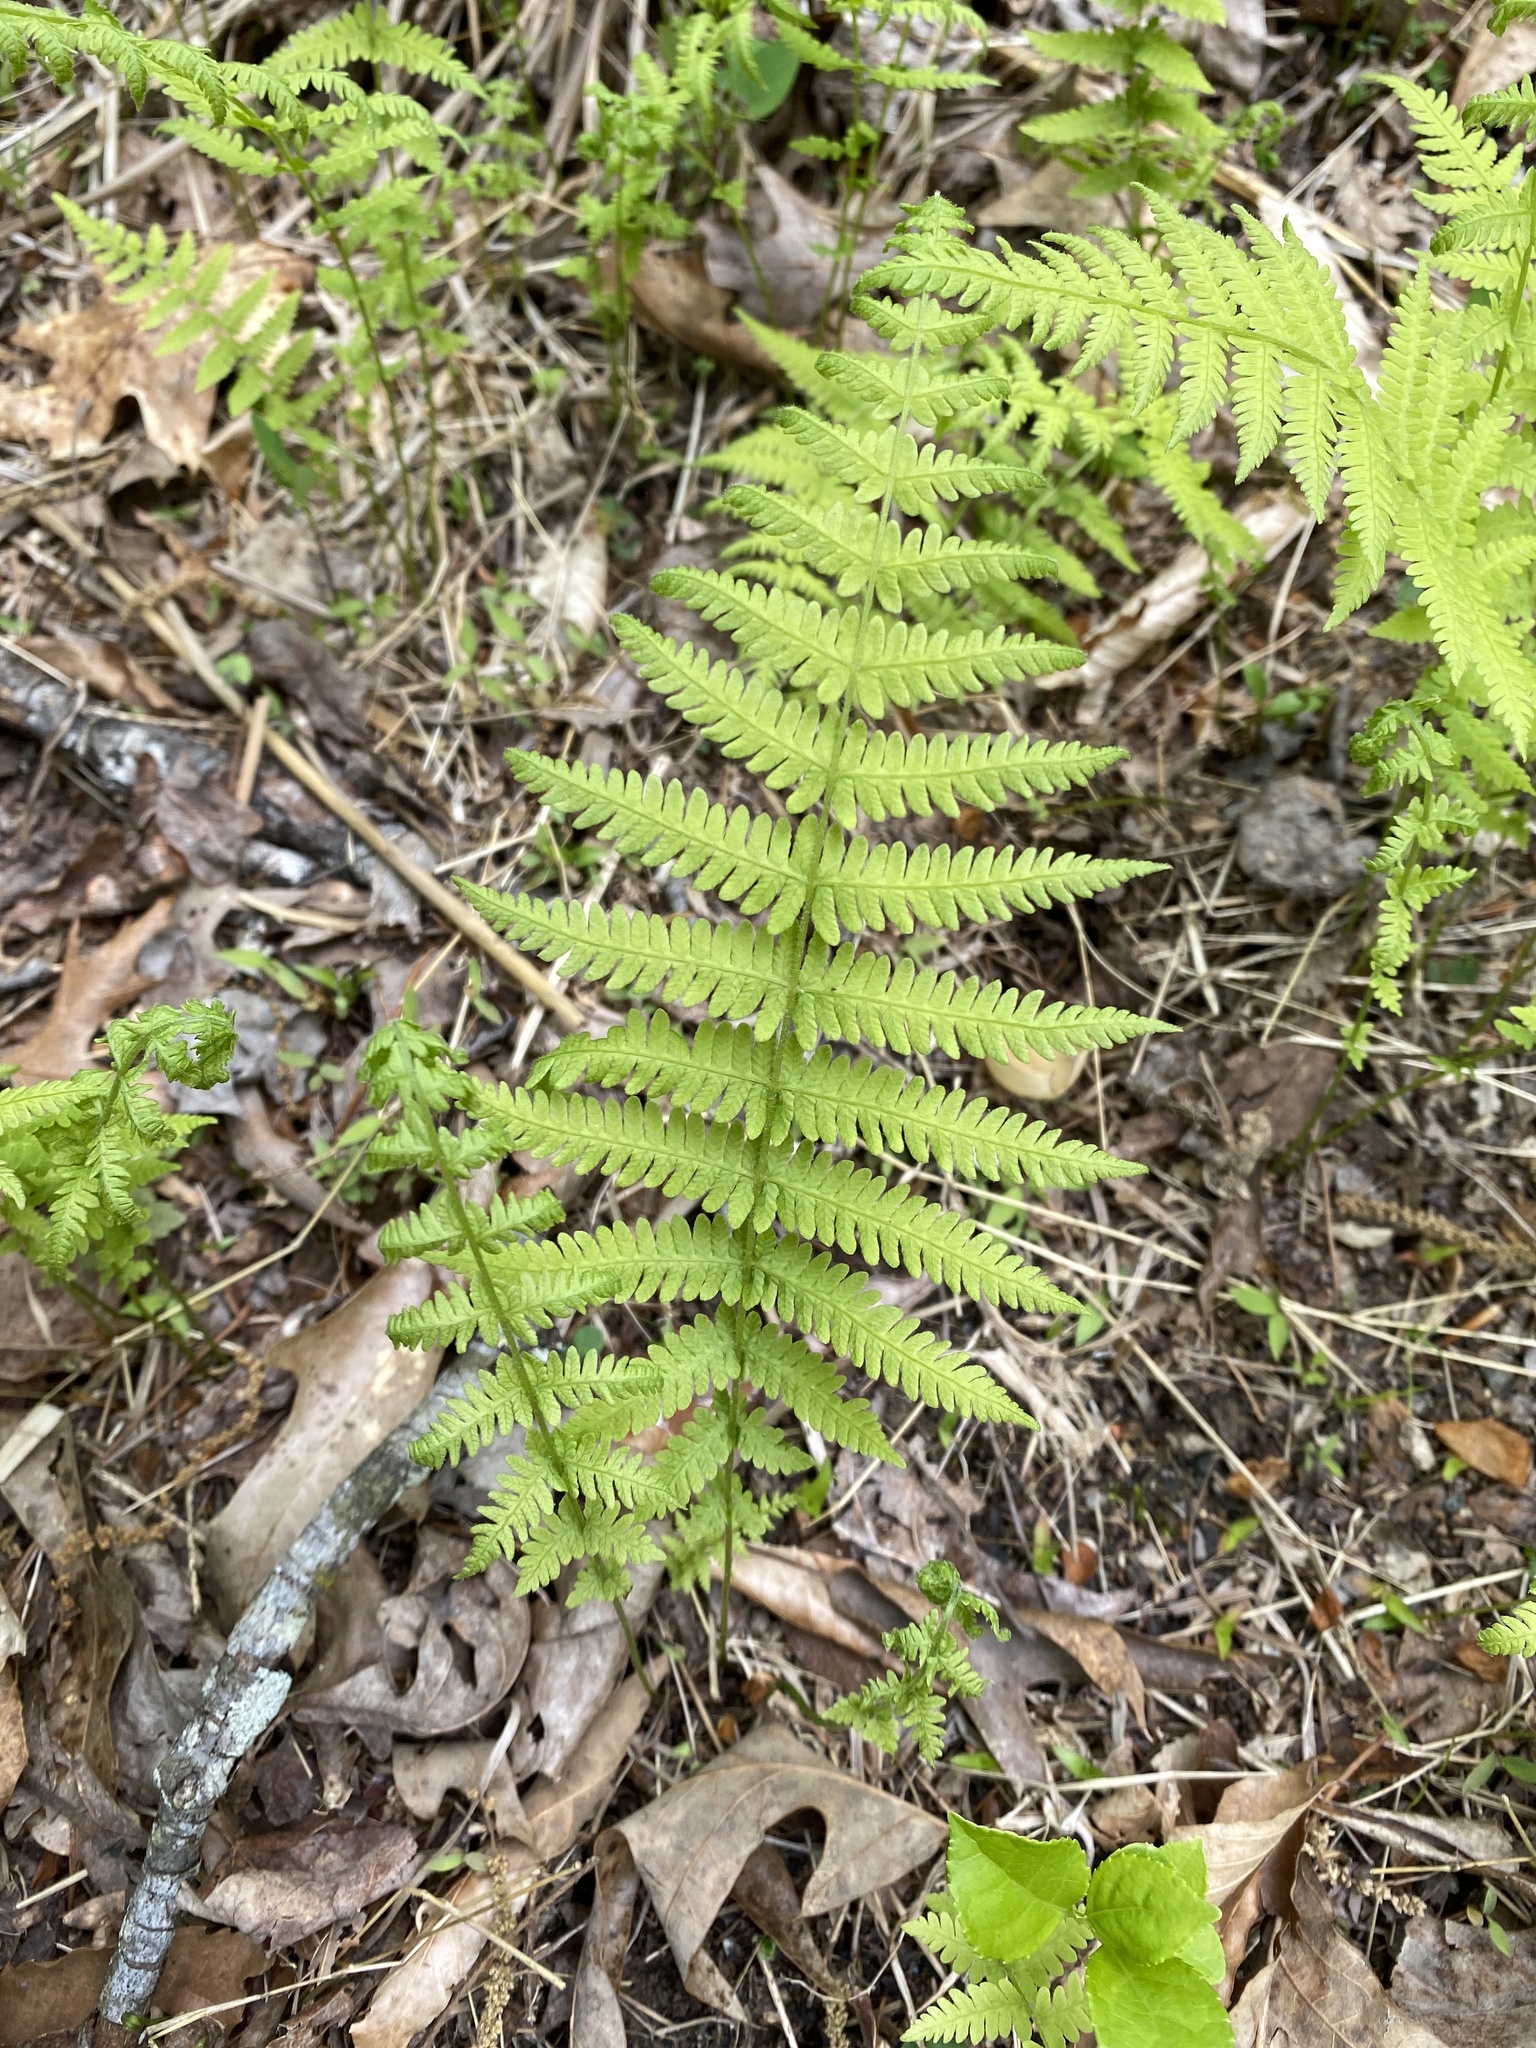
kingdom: Plantae
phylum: Tracheophyta
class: Polypodiopsida
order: Polypodiales
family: Thelypteridaceae
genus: Amauropelta
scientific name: Amauropelta noveboracensis
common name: New york fern
